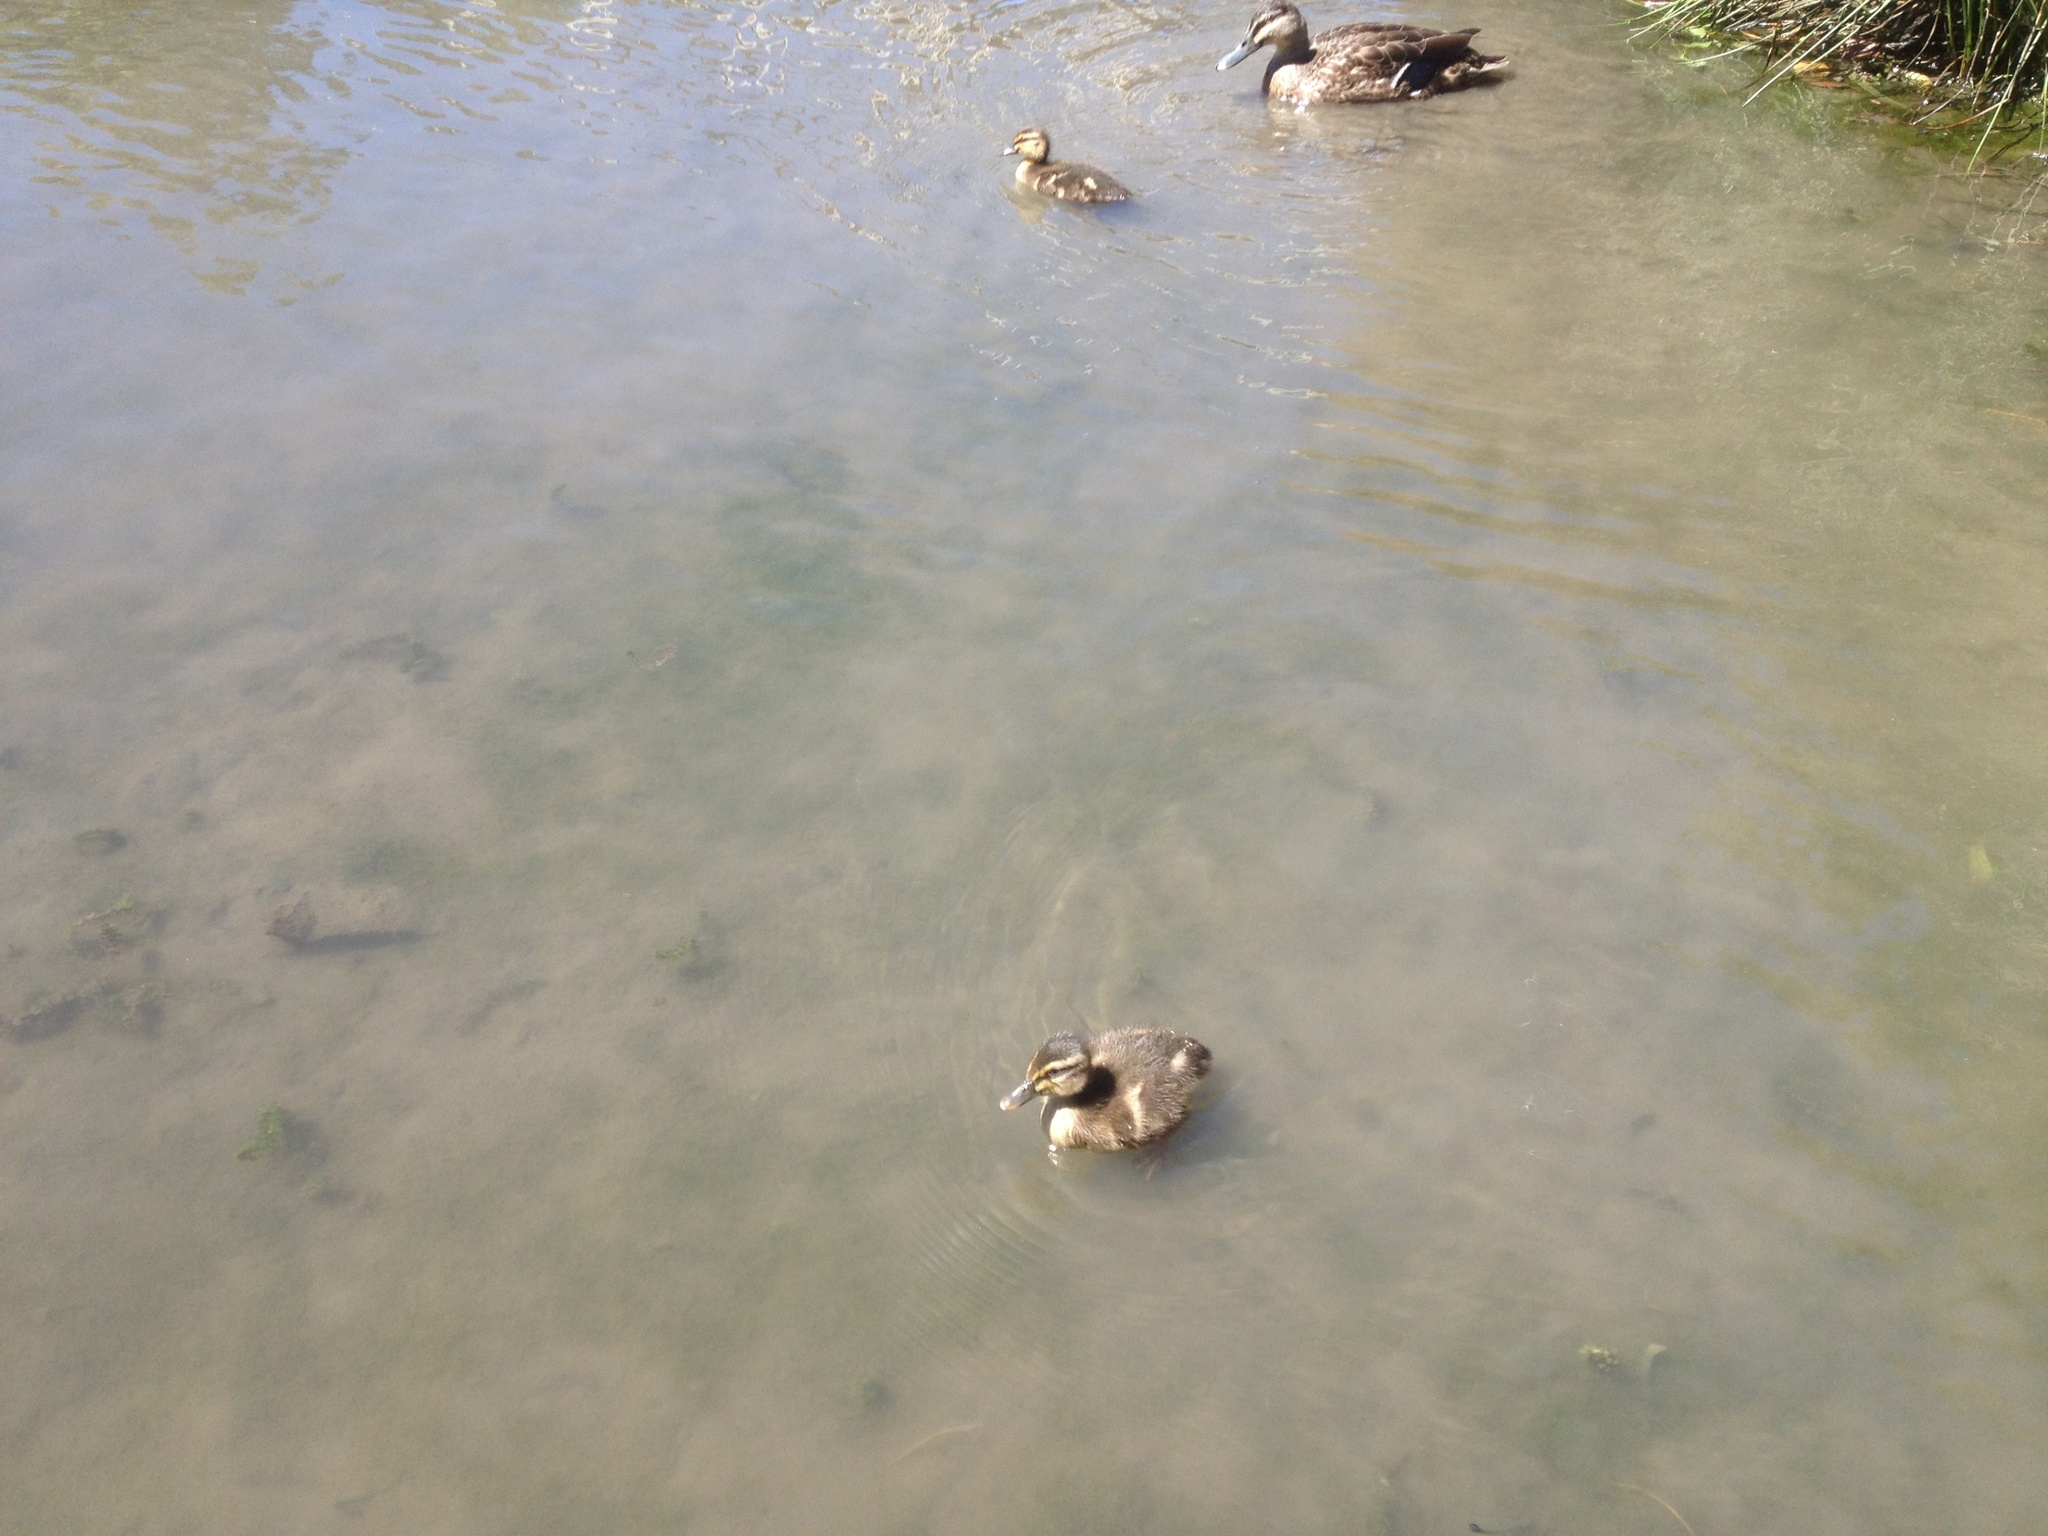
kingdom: Animalia
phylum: Chordata
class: Aves
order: Anseriformes
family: Anatidae
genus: Anas
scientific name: Anas
